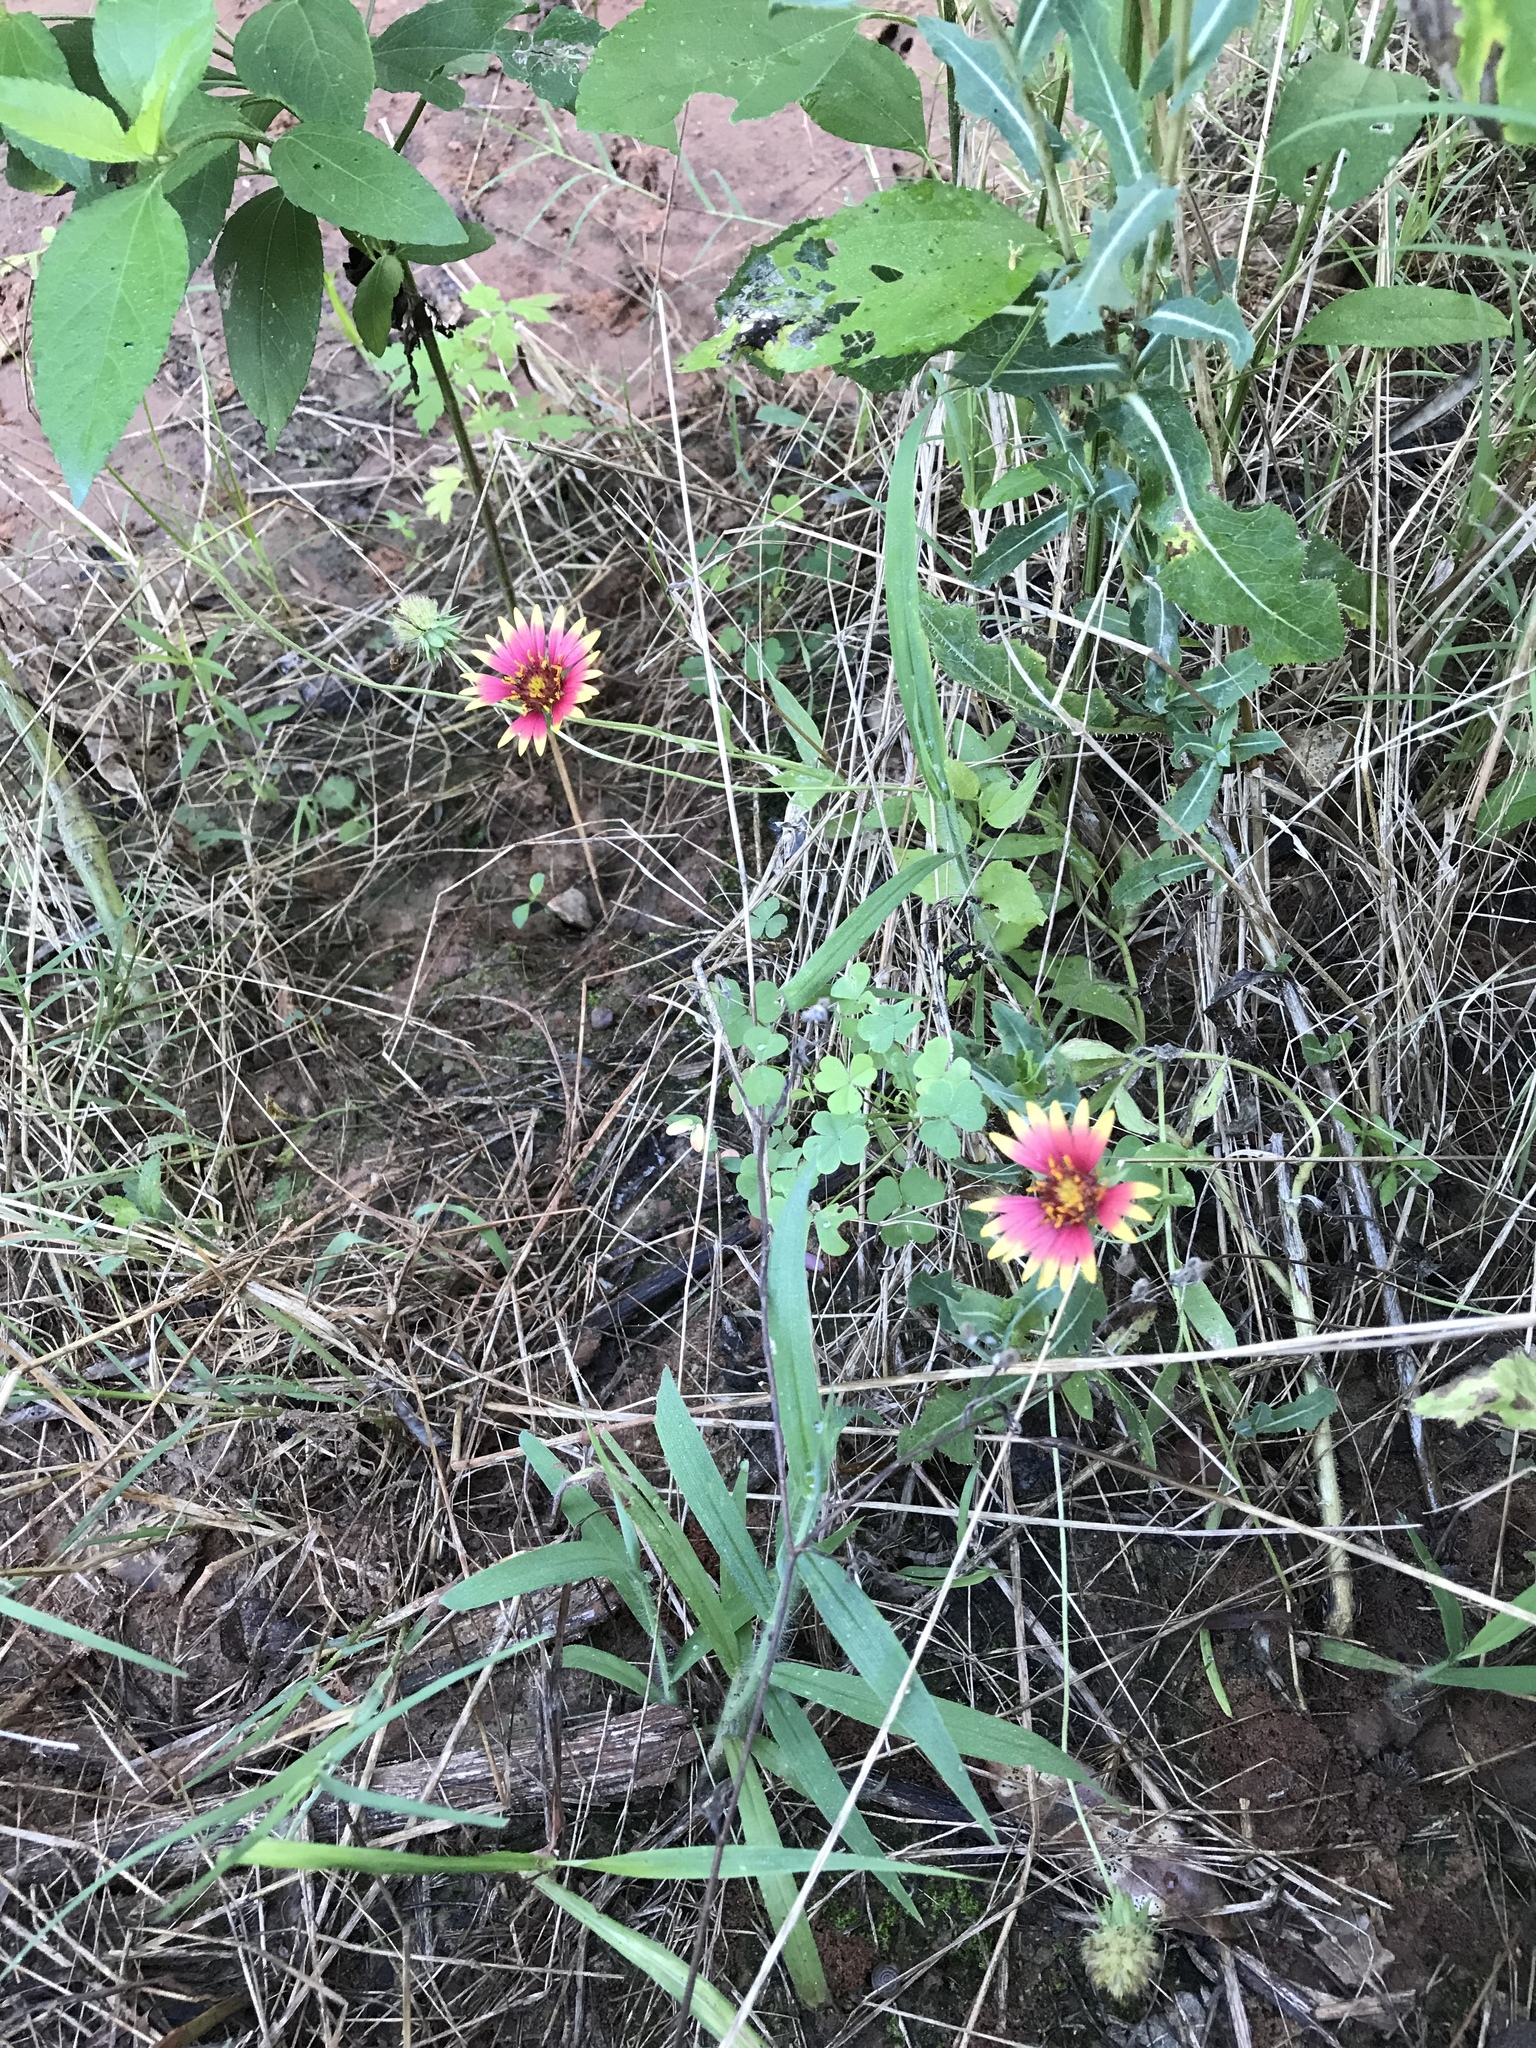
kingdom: Plantae
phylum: Tracheophyta
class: Magnoliopsida
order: Asterales
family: Asteraceae
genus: Gaillardia
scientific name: Gaillardia pulchella
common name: Firewheel
